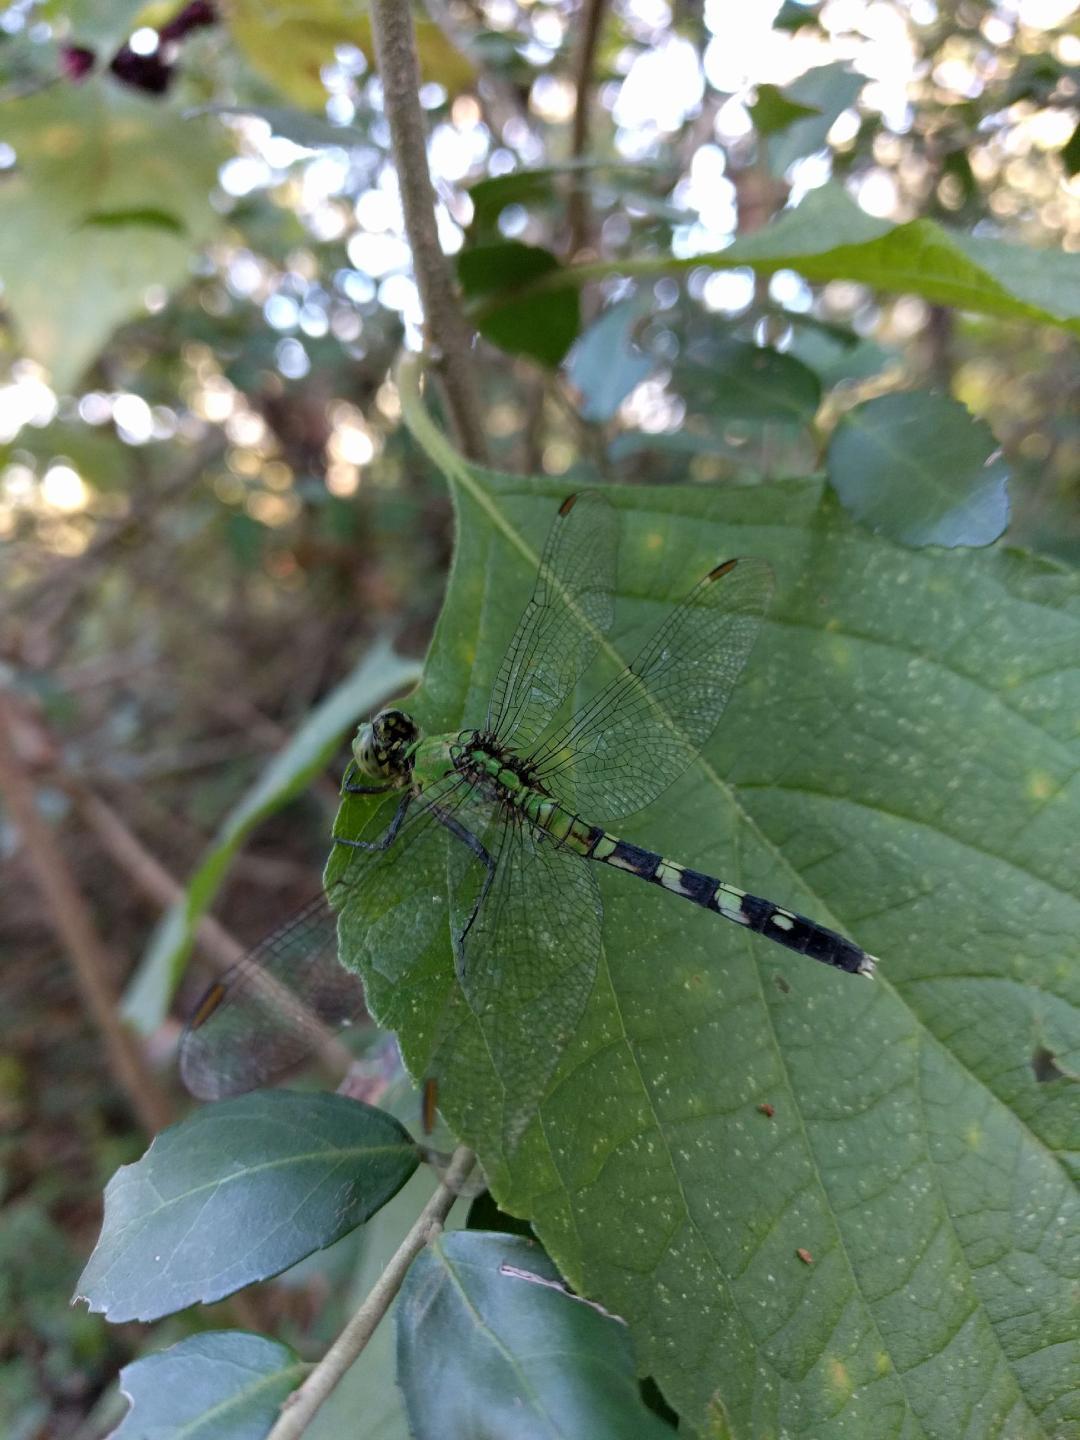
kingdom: Animalia
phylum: Arthropoda
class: Insecta
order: Odonata
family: Libellulidae
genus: Erythemis
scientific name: Erythemis simplicicollis
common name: Eastern pondhawk
